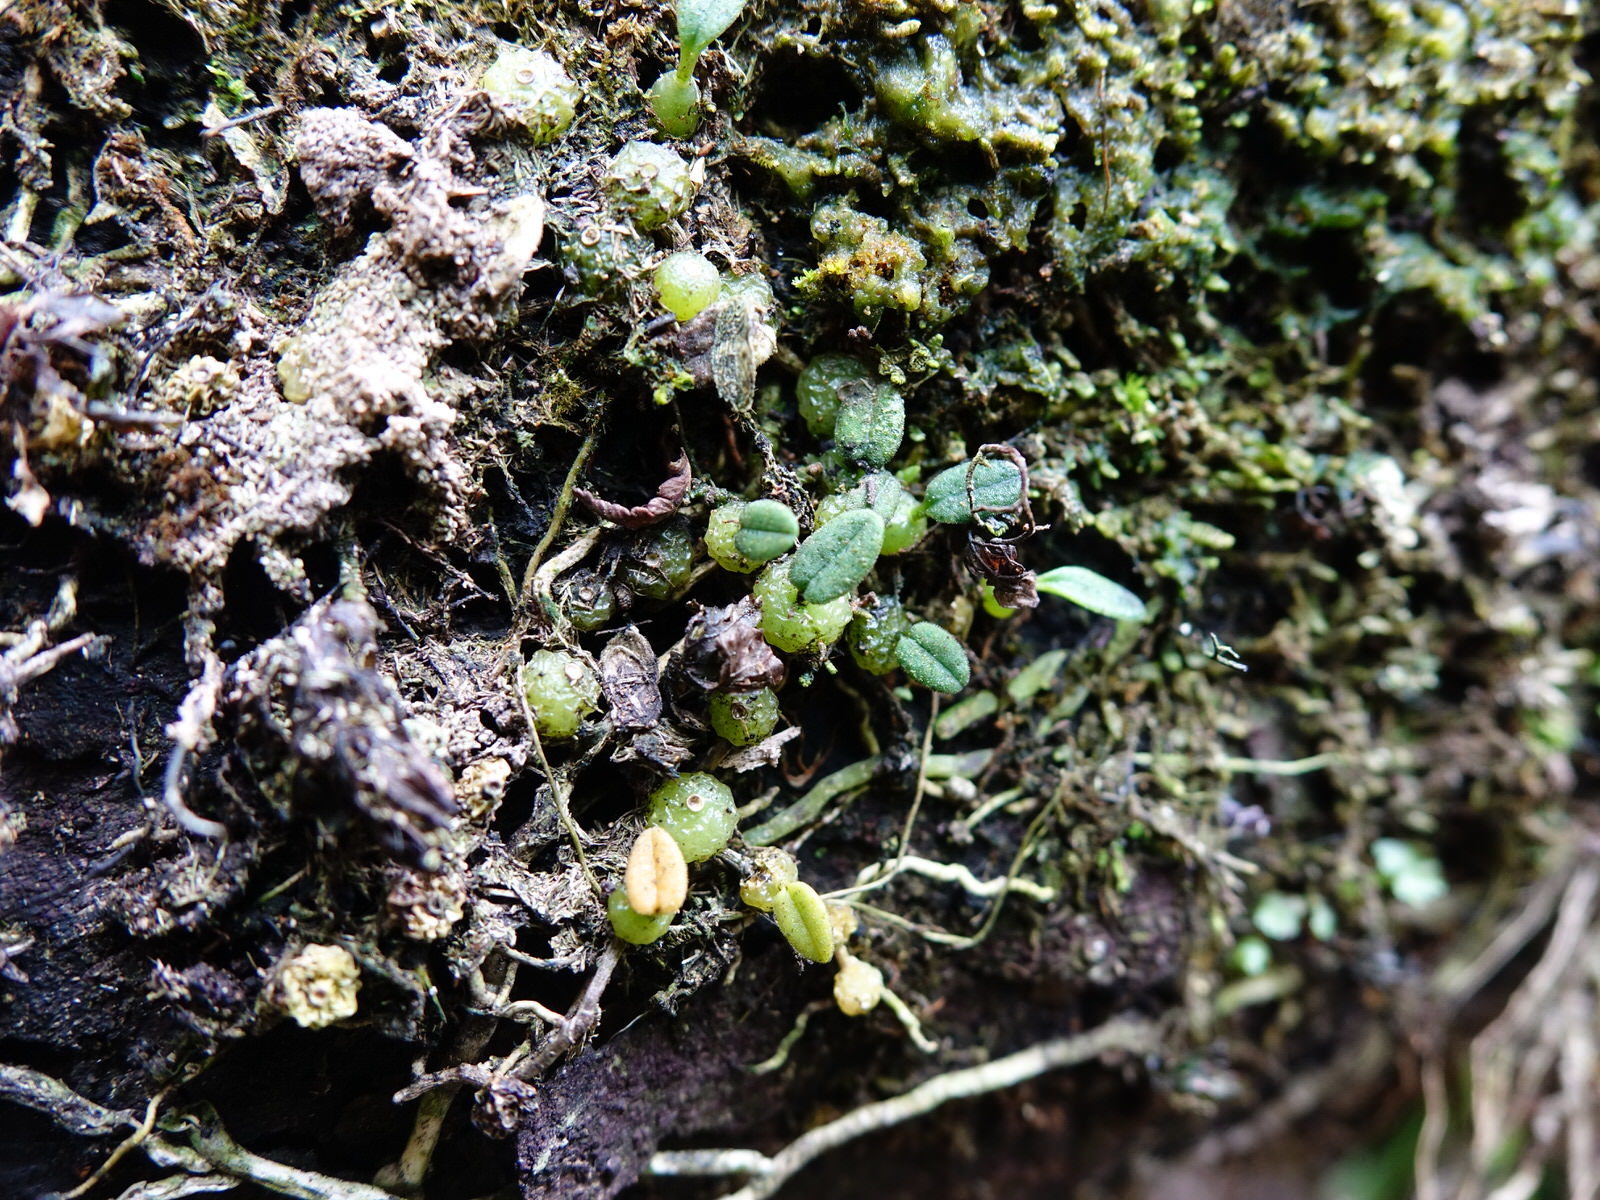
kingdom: Plantae
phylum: Tracheophyta
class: Liliopsida
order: Asparagales
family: Orchidaceae
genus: Bulbophyllum
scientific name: Bulbophyllum pygmaeum
